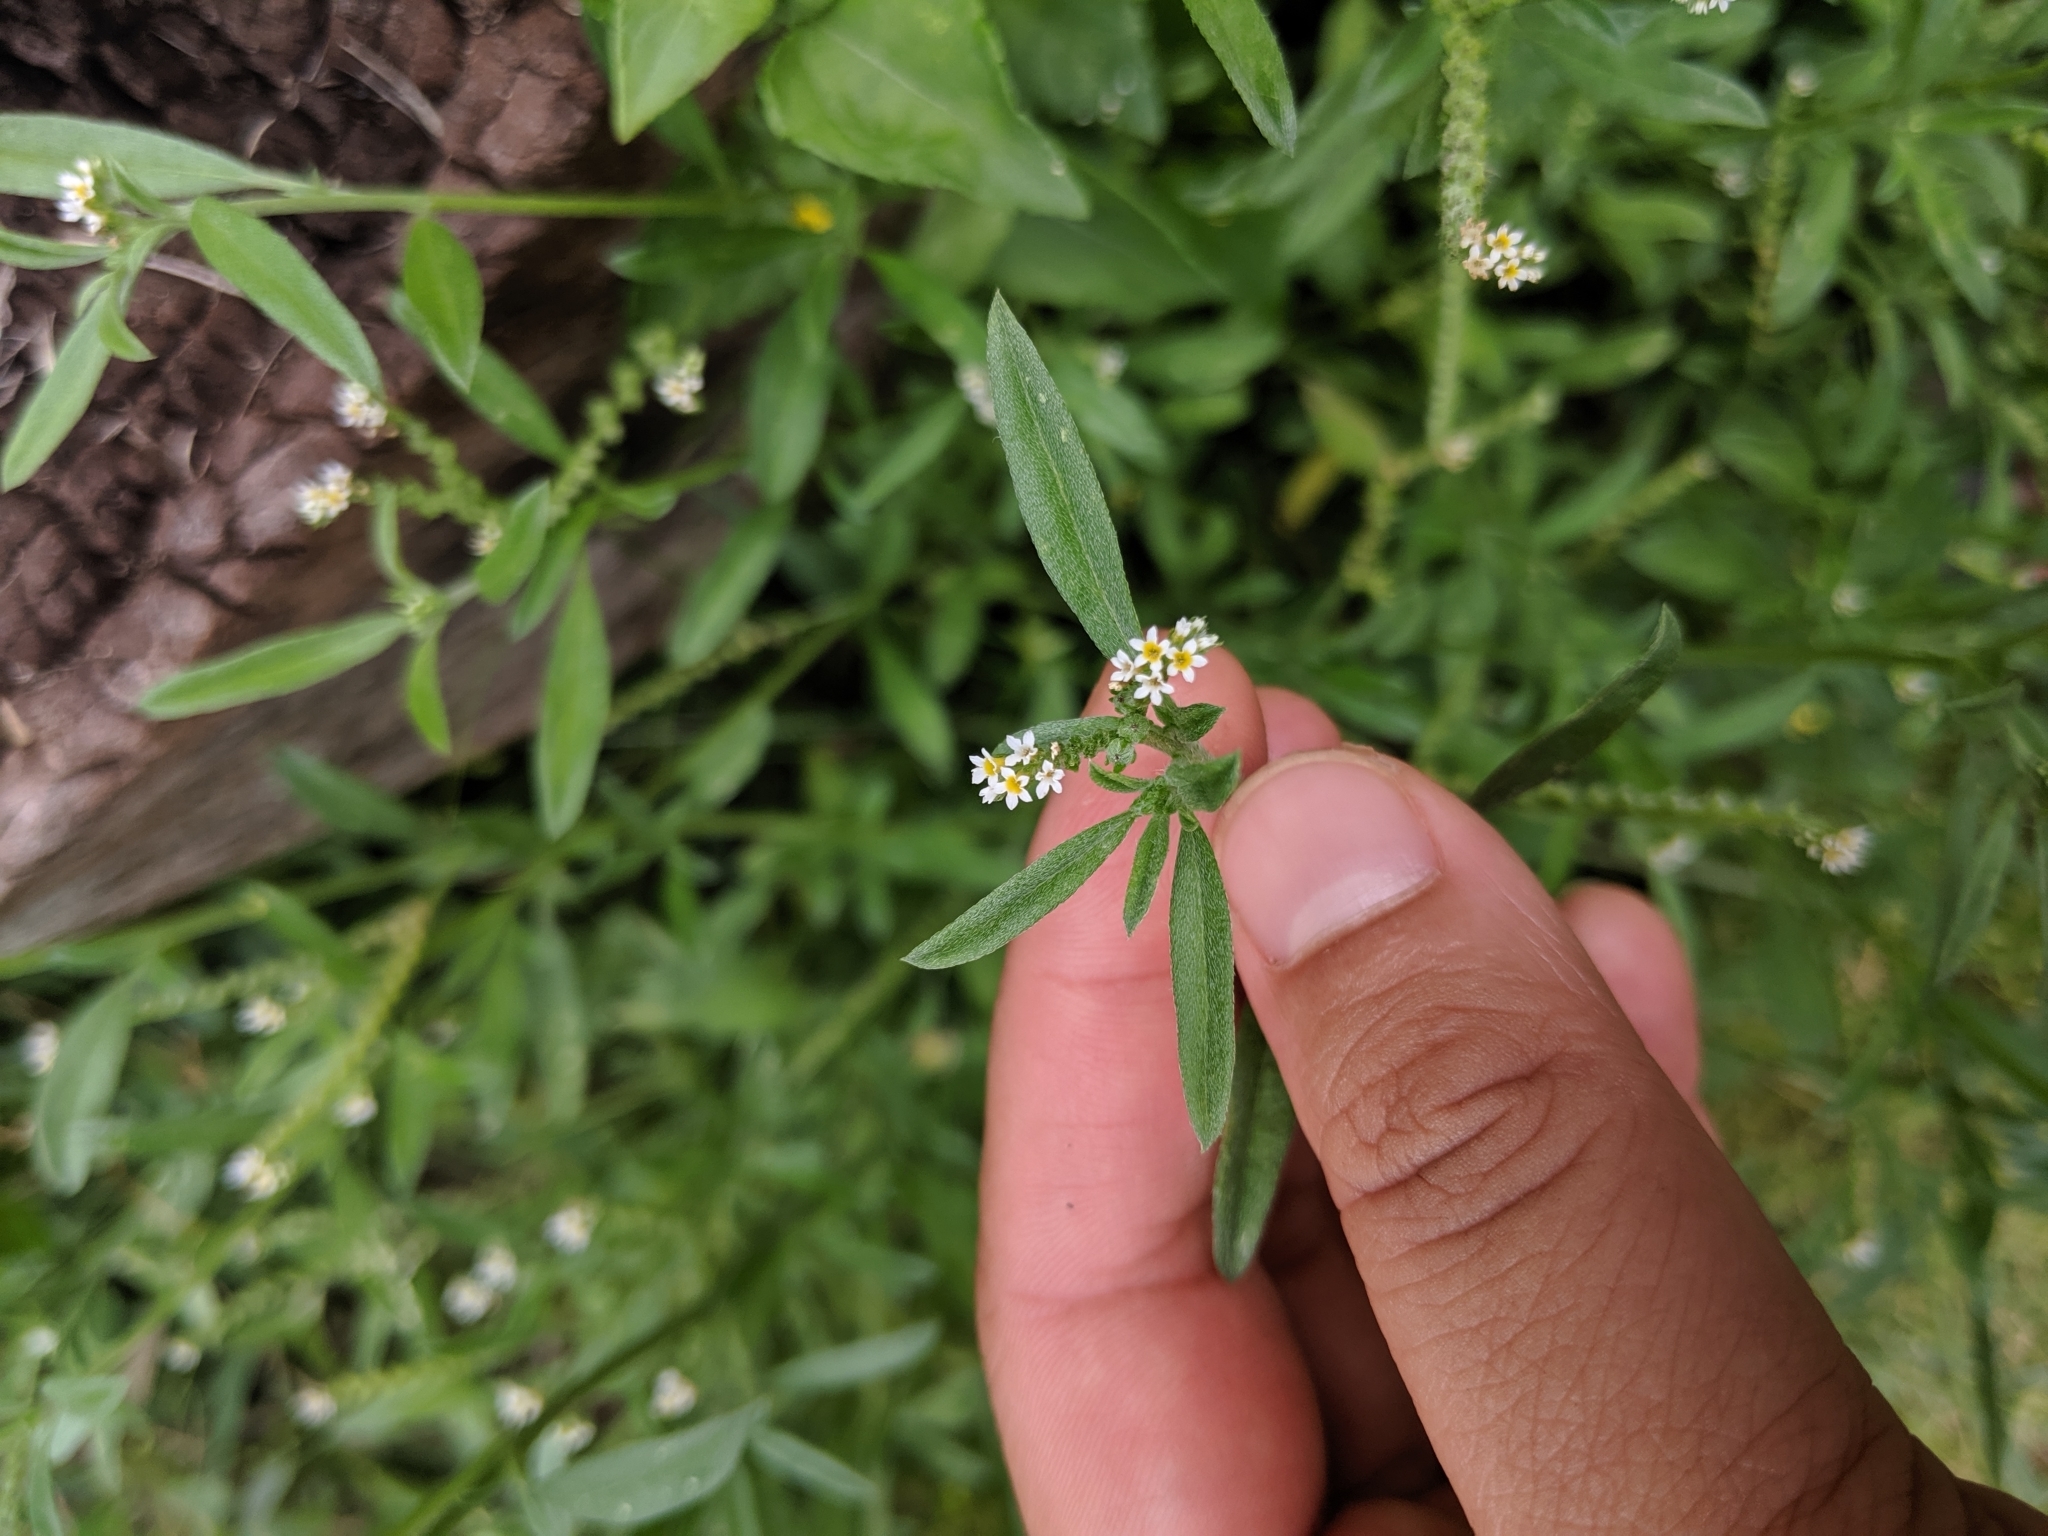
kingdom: Plantae
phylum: Tracheophyta
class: Magnoliopsida
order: Boraginales
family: Heliotropiaceae
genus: Euploca
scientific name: Euploca procumbens
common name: Fourspike heliotrope
